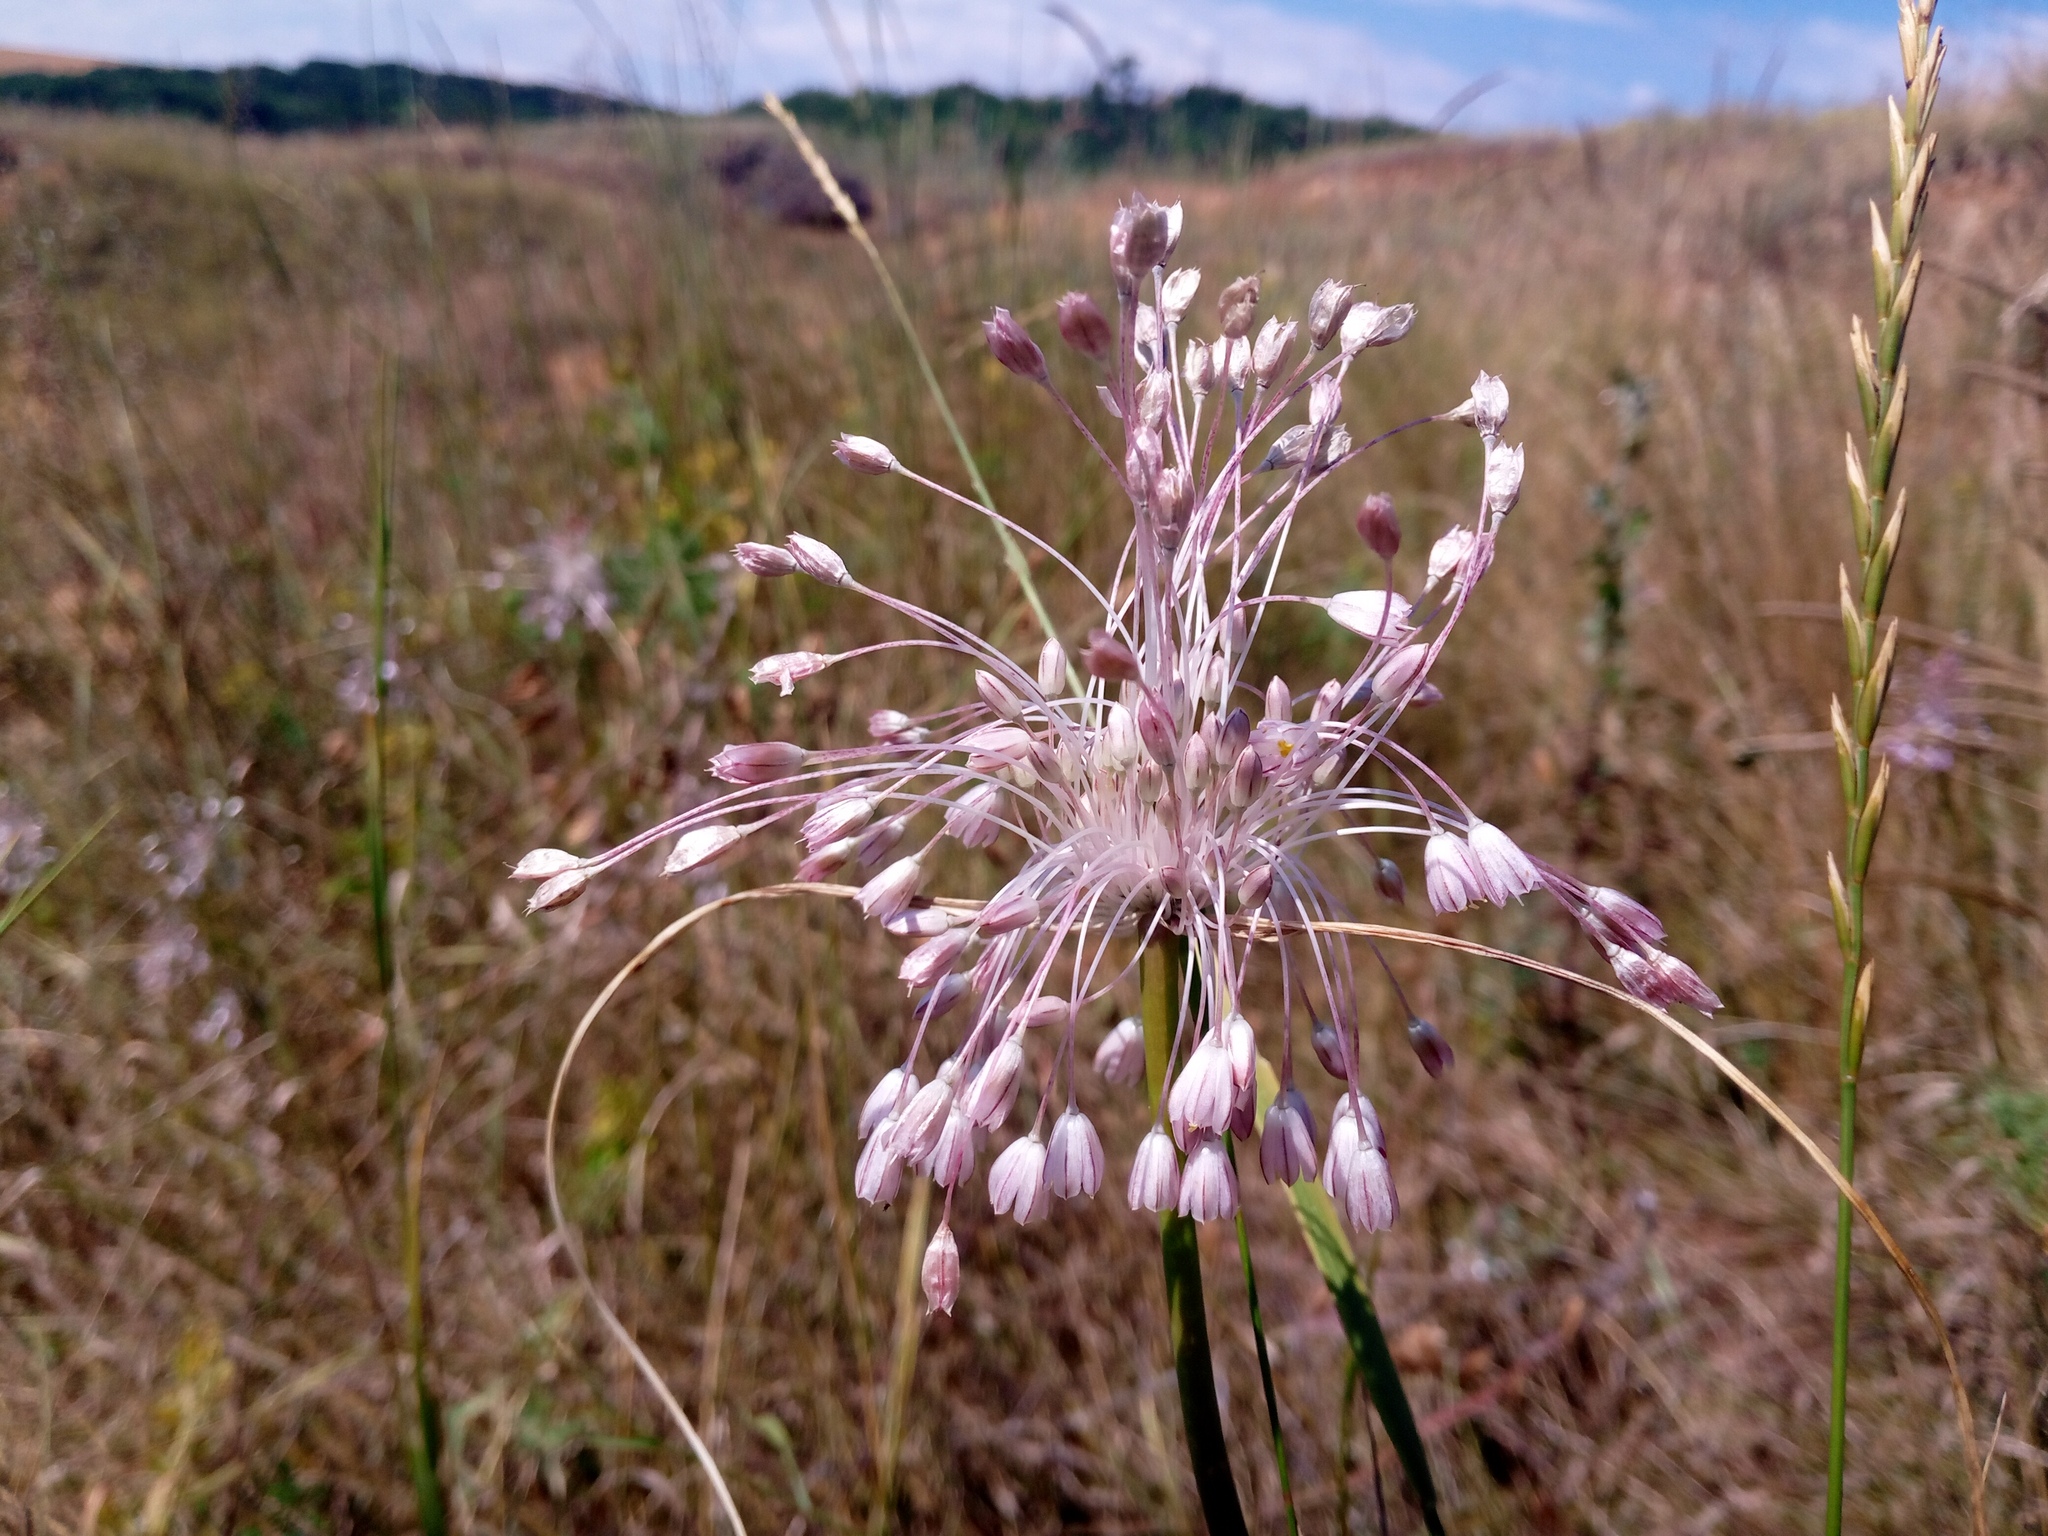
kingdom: Plantae
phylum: Tracheophyta
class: Liliopsida
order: Asparagales
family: Amaryllidaceae
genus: Allium
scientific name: Allium paniculatum
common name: Pale garlic
